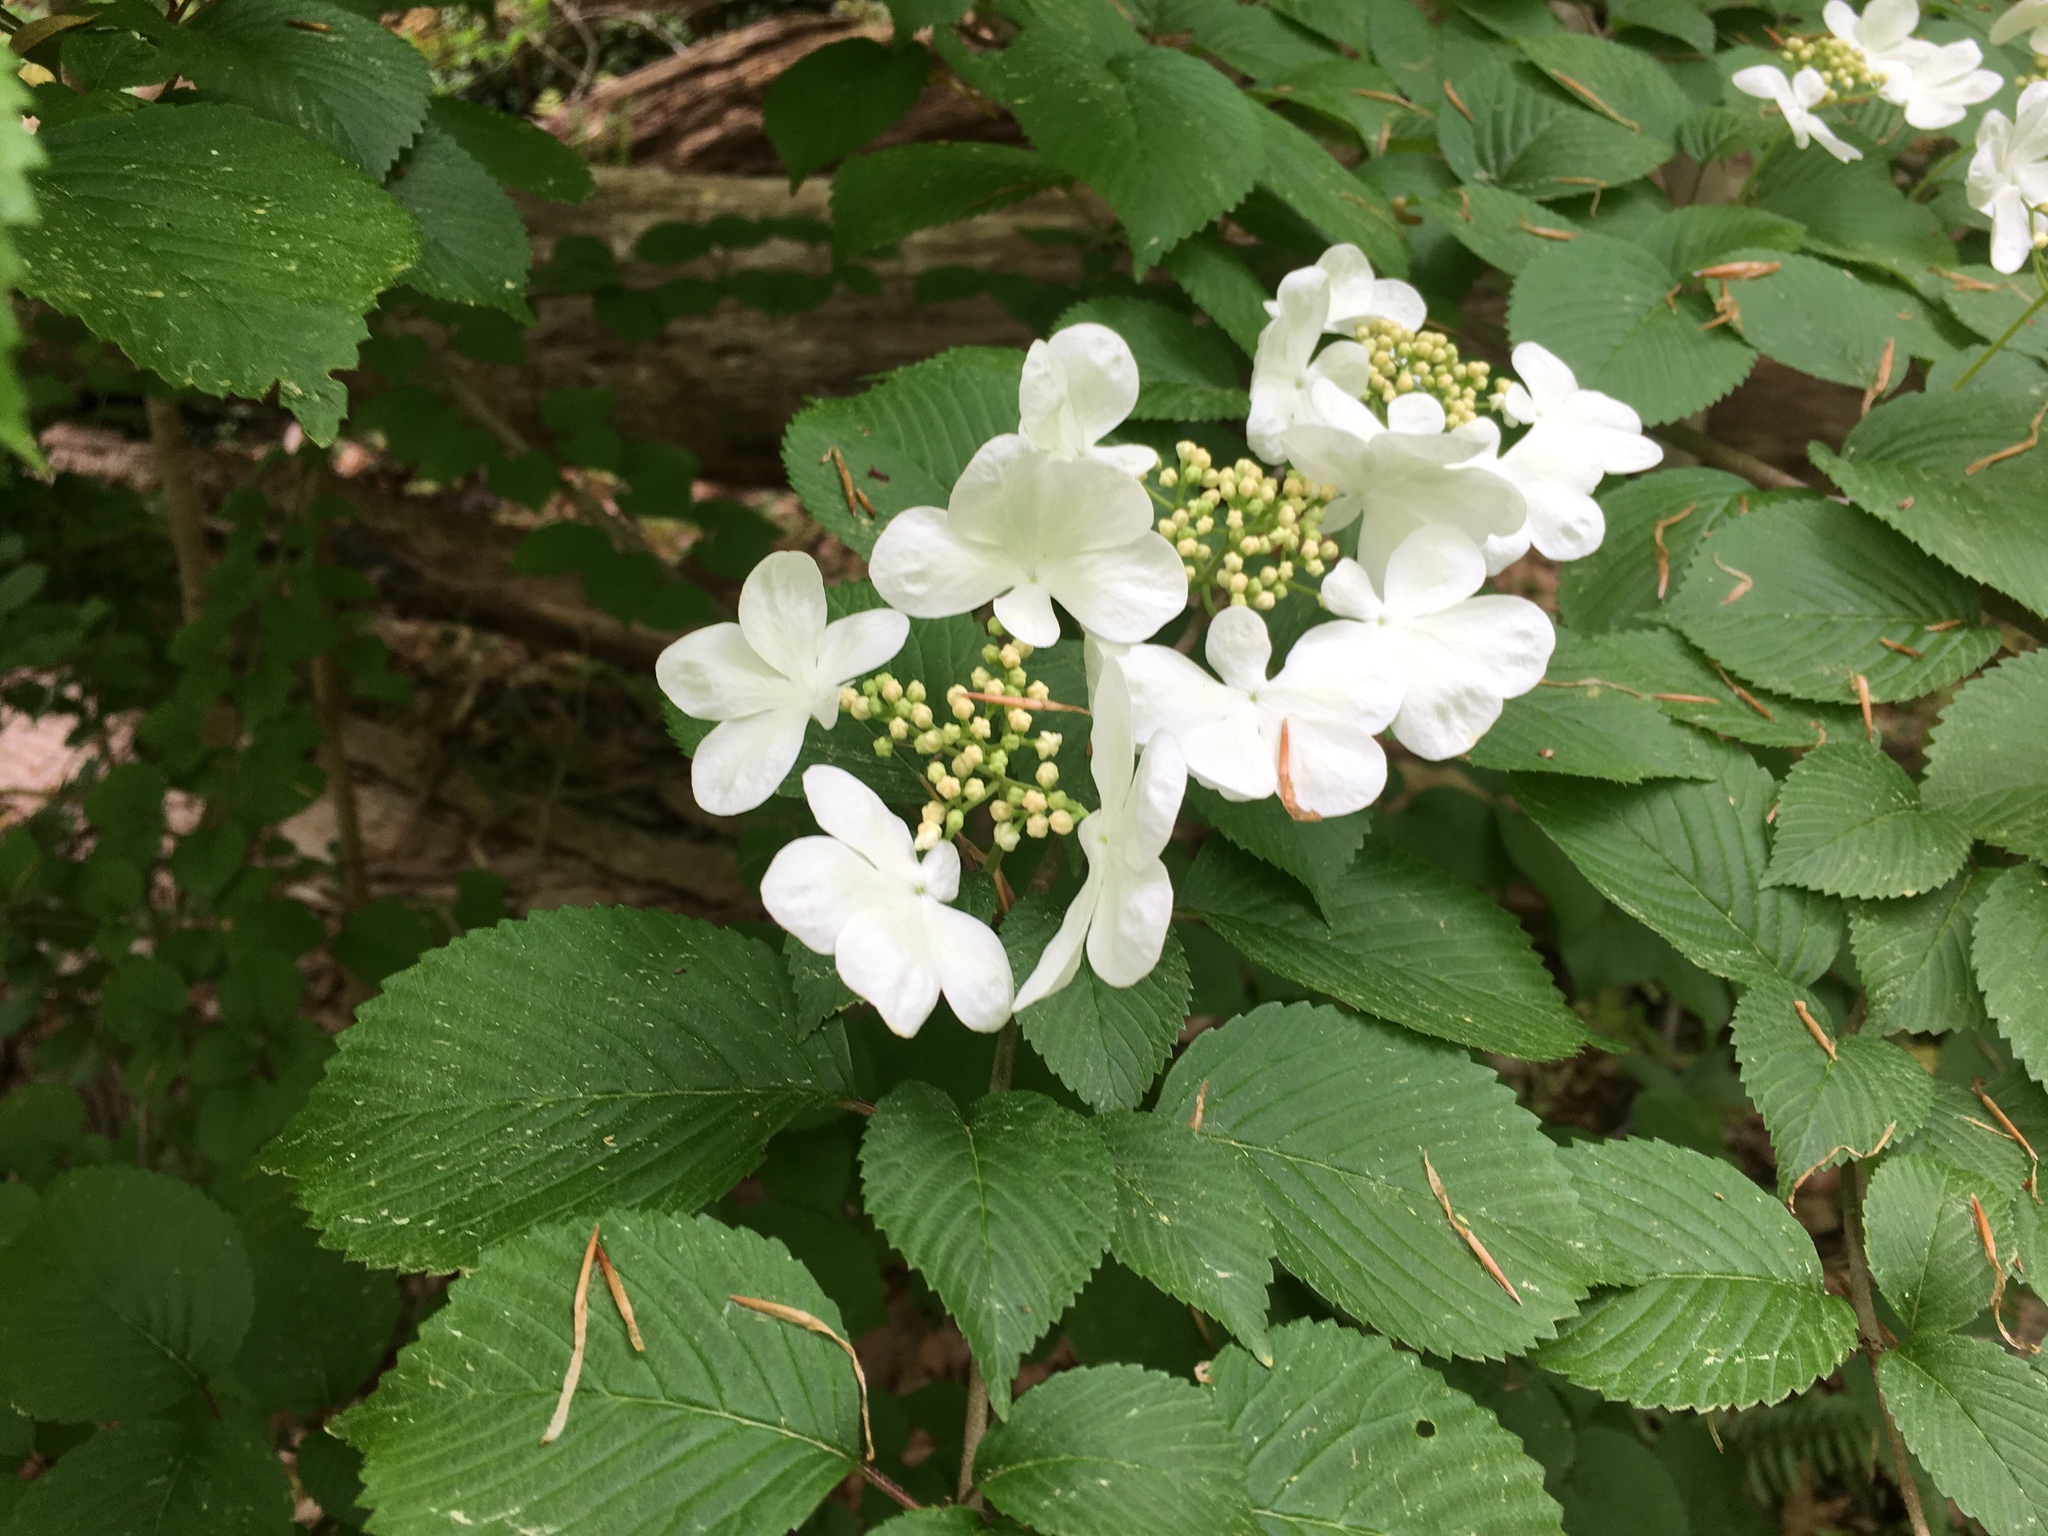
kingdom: Plantae
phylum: Tracheophyta
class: Magnoliopsida
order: Dipsacales
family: Viburnaceae
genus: Viburnum
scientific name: Viburnum plicatum
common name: Japanese snowball
